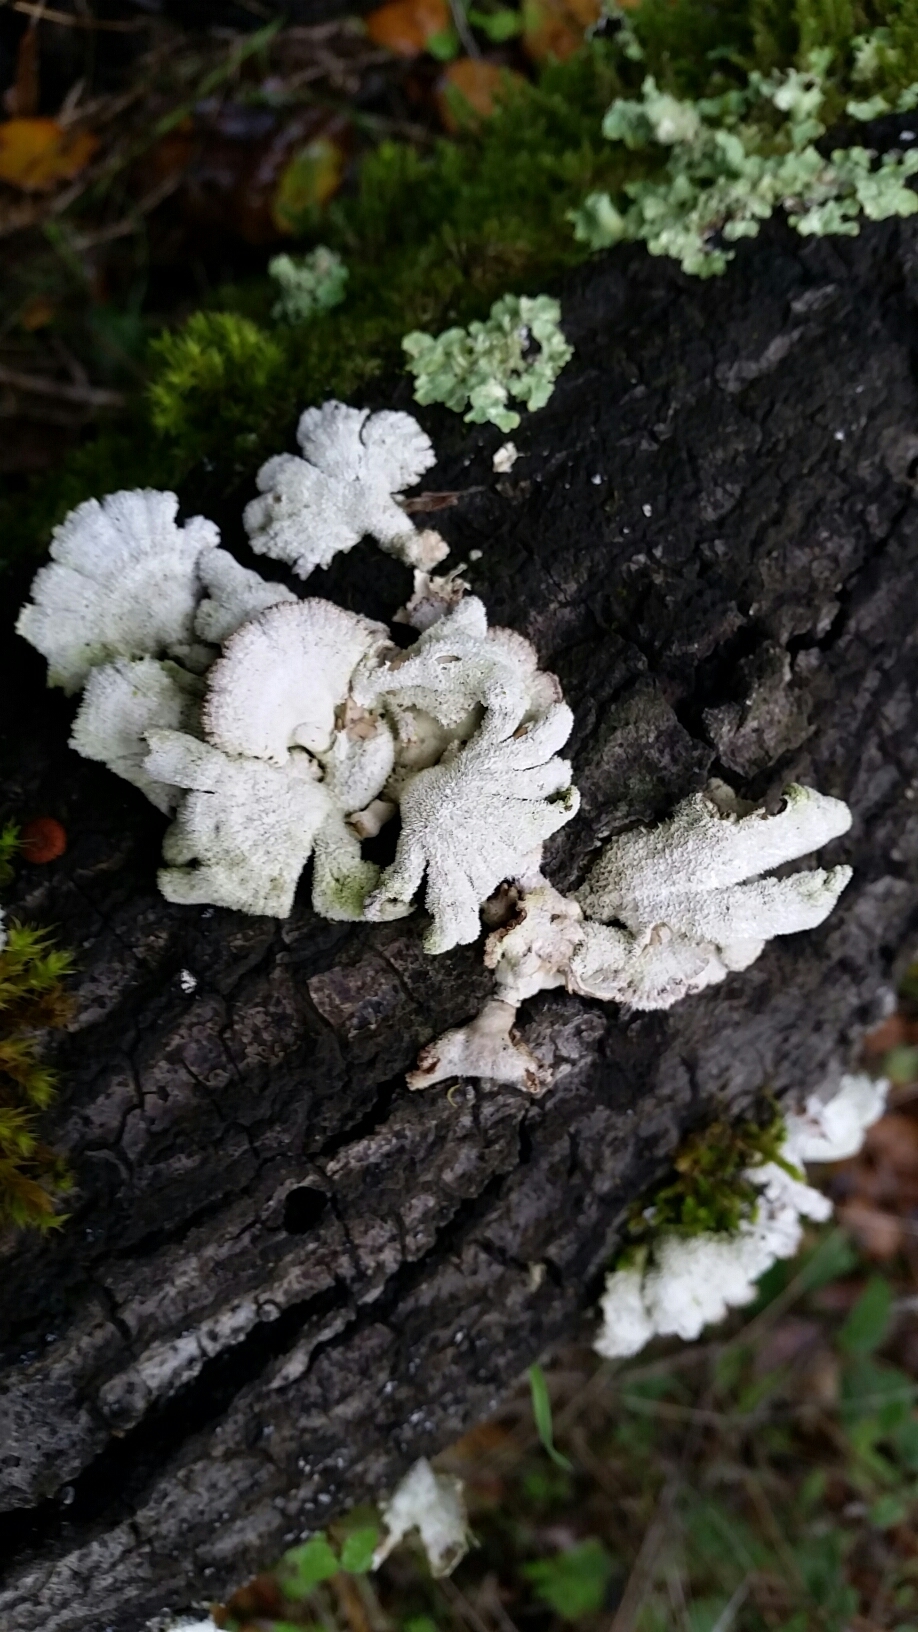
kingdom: Fungi
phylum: Basidiomycota
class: Agaricomycetes
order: Agaricales
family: Schizophyllaceae
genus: Schizophyllum
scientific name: Schizophyllum commune
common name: Common porecrust
